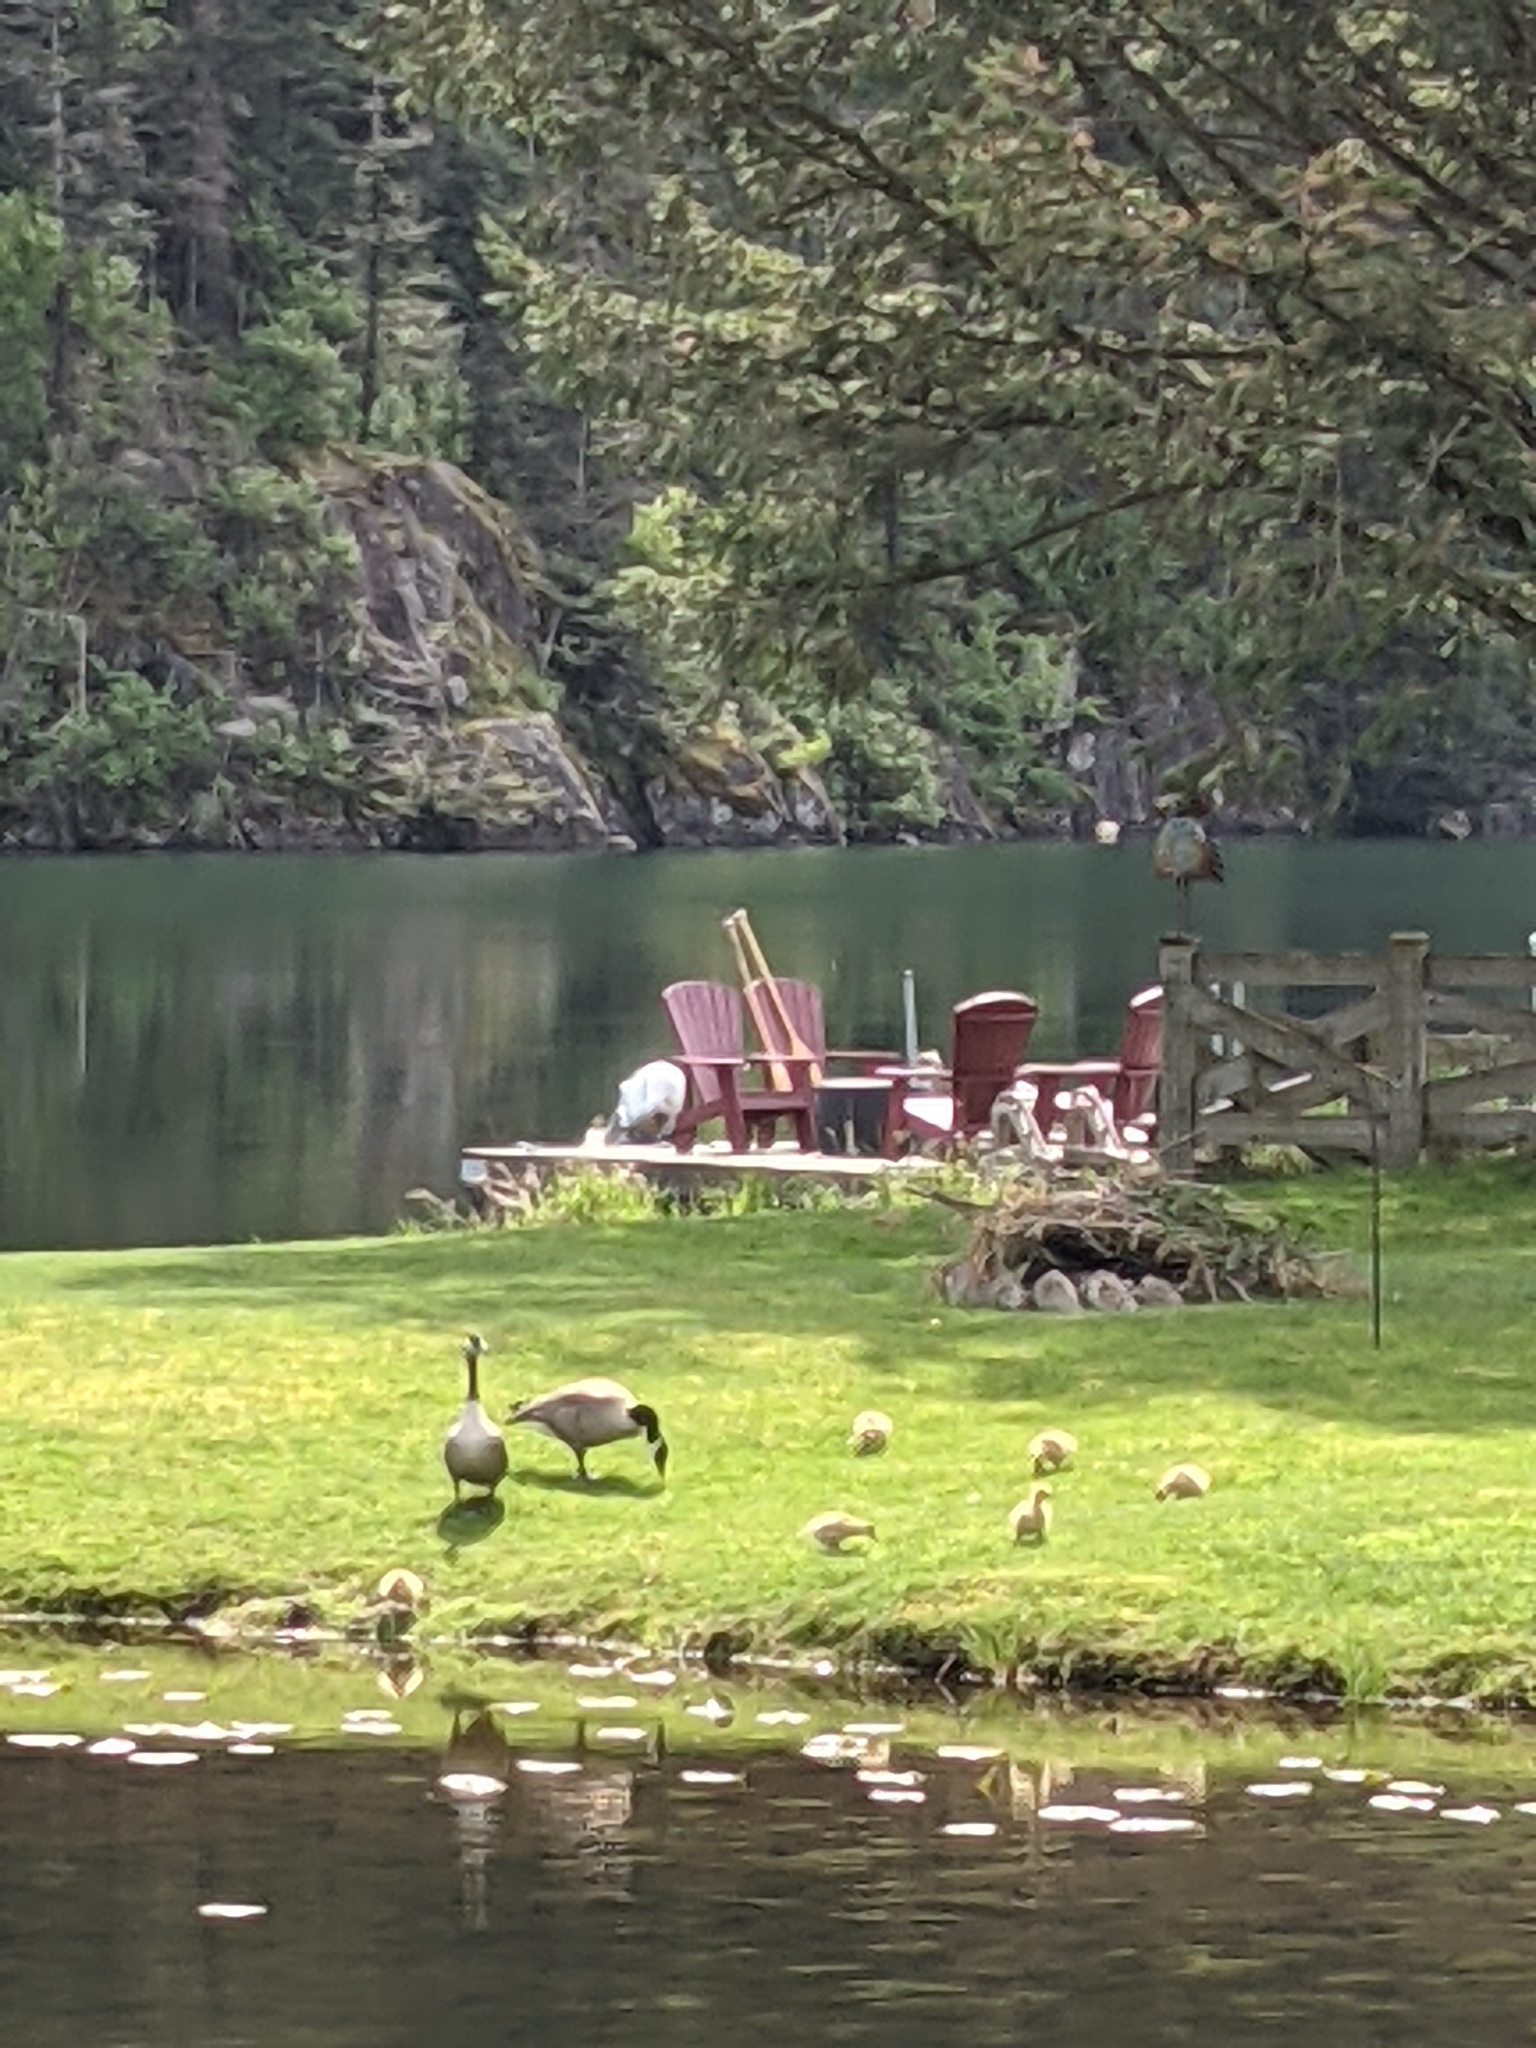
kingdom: Animalia
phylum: Chordata
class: Aves
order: Anseriformes
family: Anatidae
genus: Branta
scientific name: Branta canadensis
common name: Canada goose
